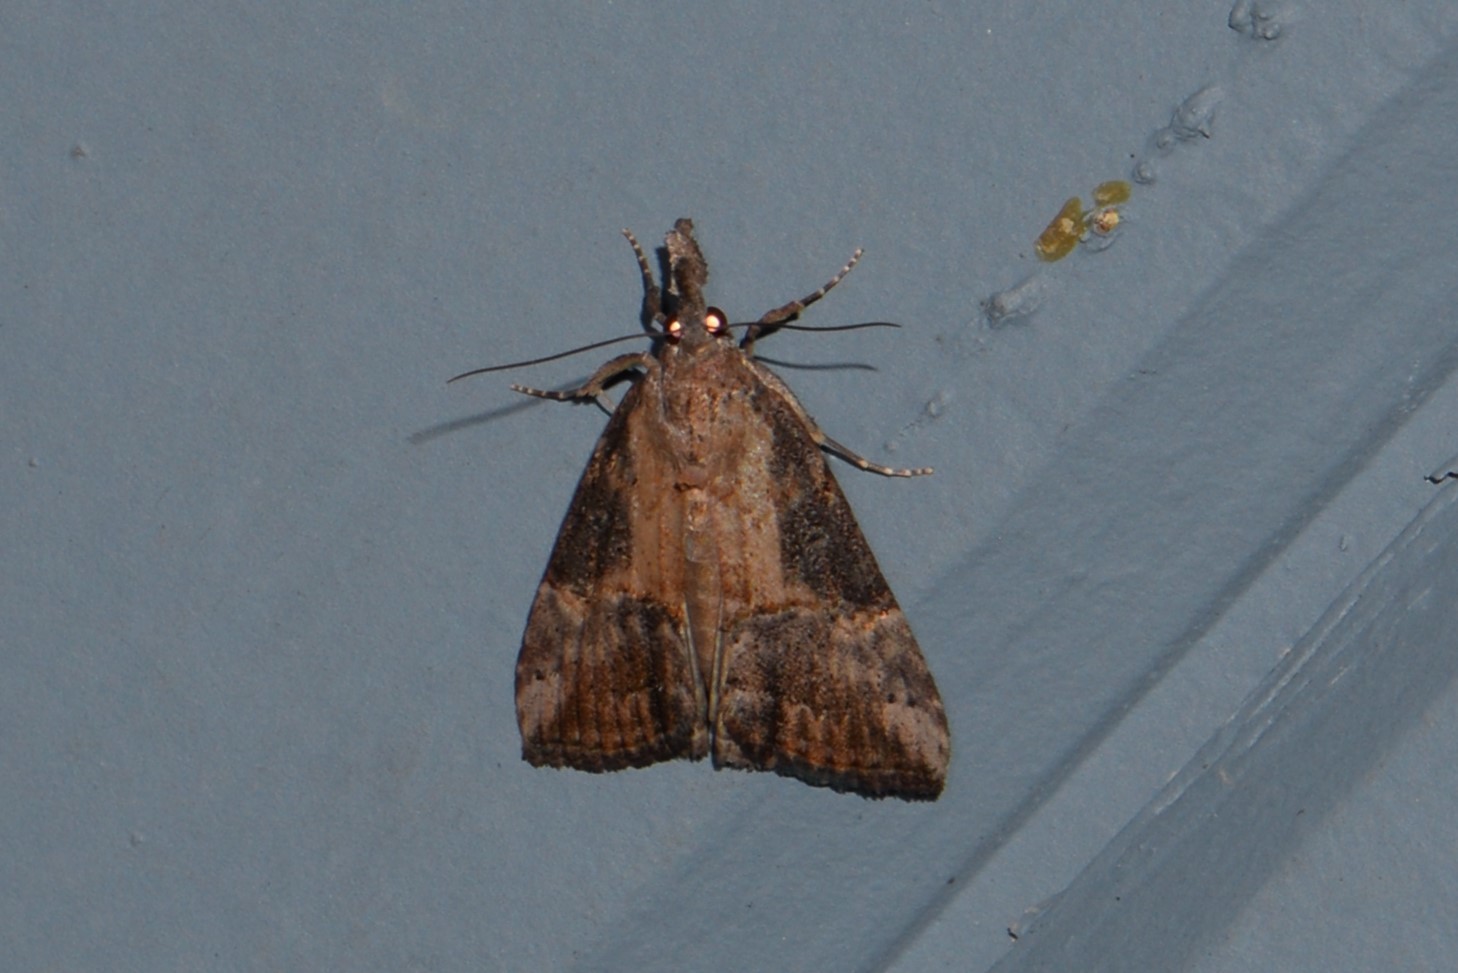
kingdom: Animalia
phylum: Arthropoda
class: Insecta
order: Lepidoptera
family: Erebidae
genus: Hypena
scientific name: Hypena scabra
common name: Green cloverworm
